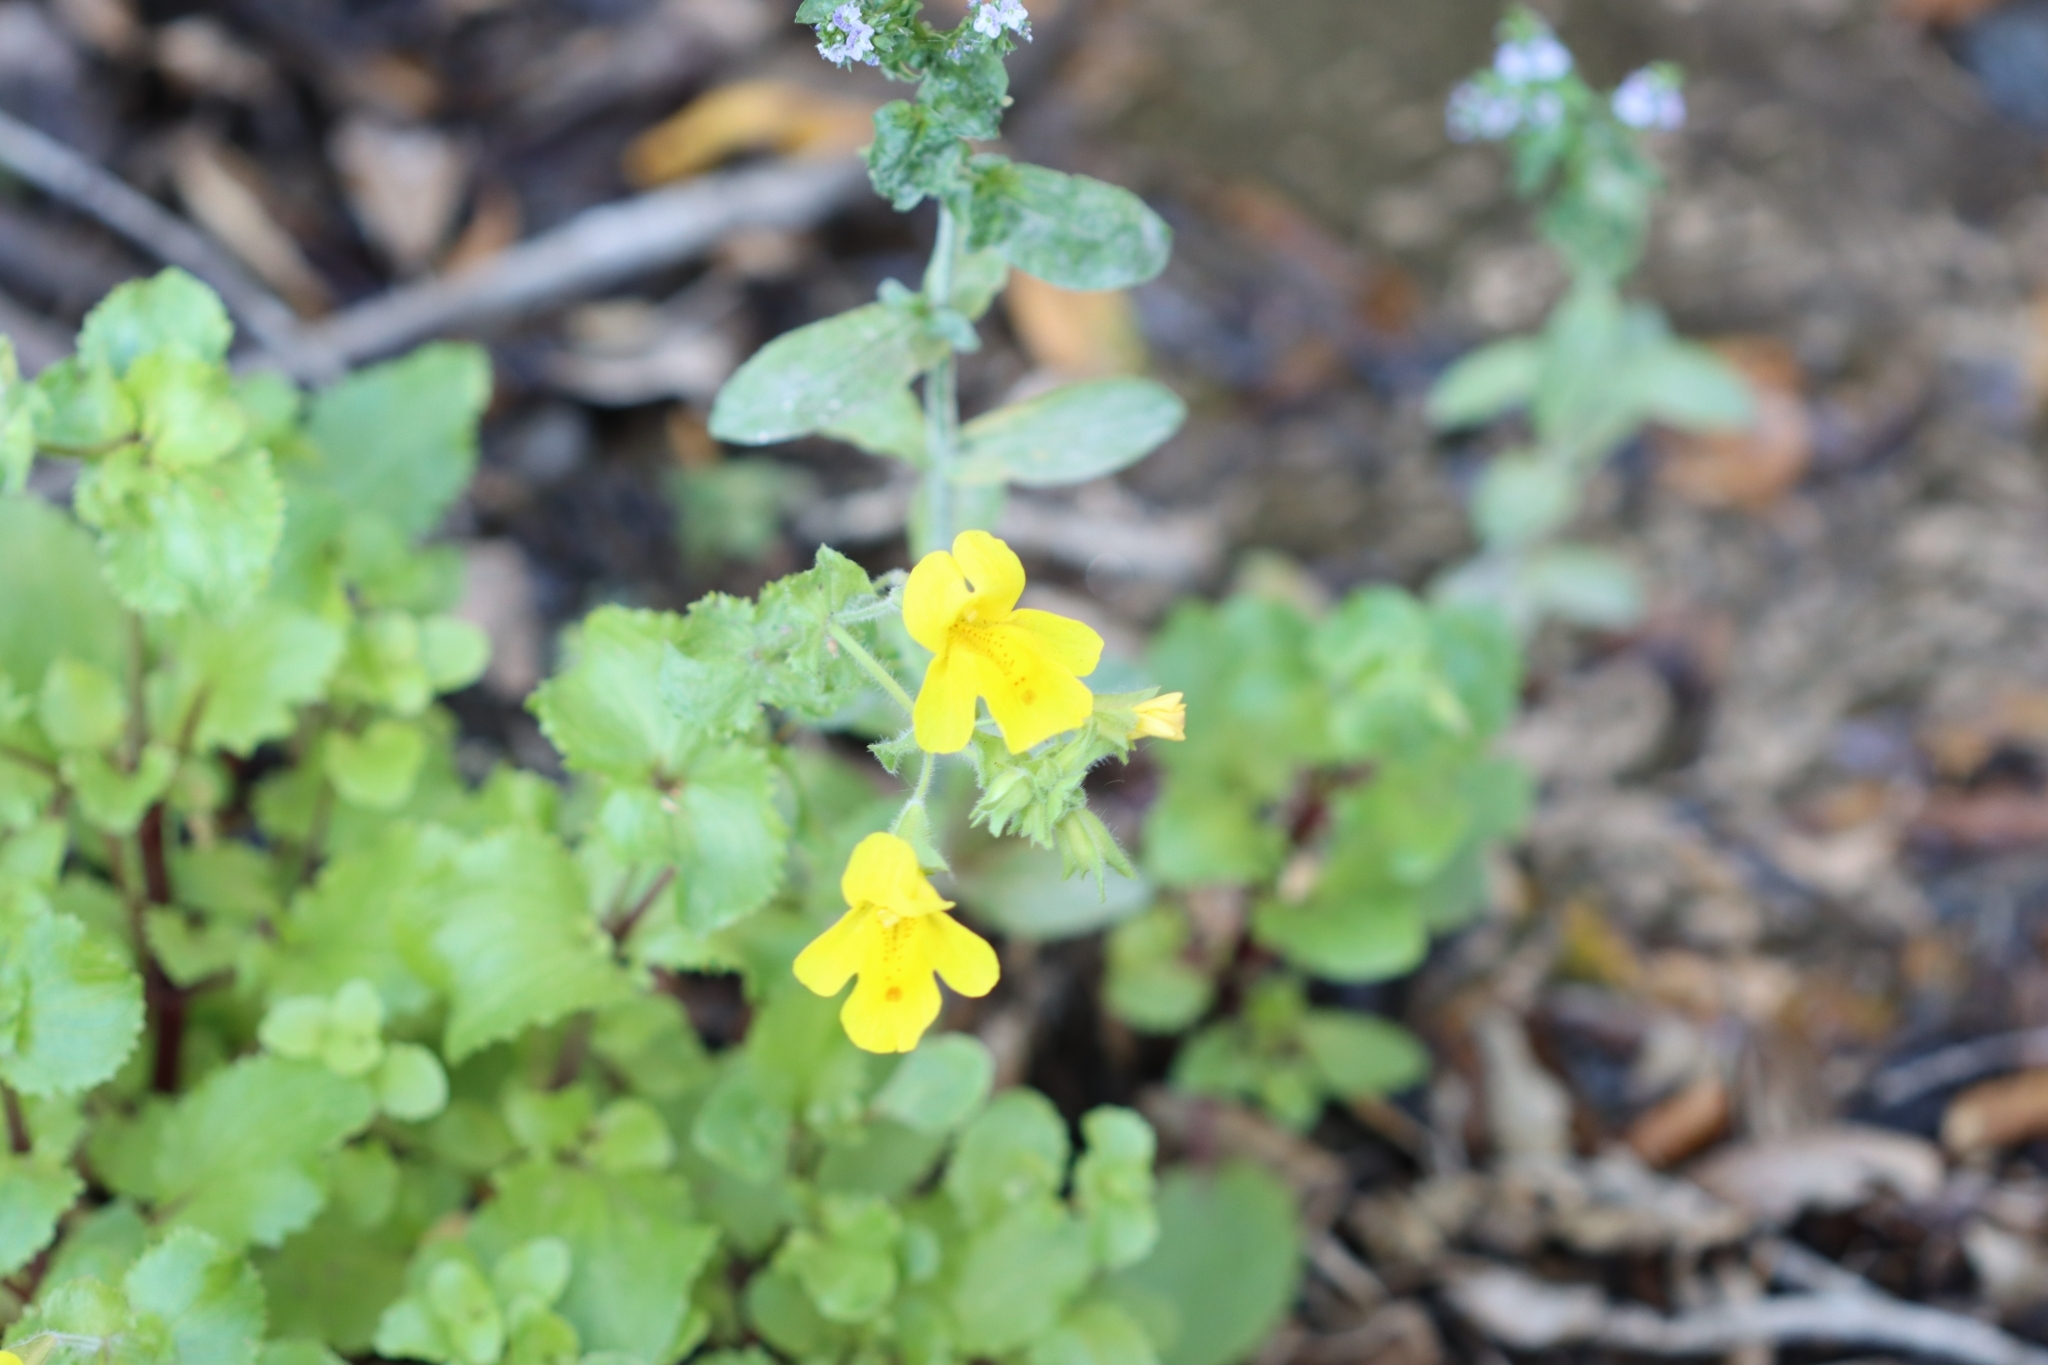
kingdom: Plantae
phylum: Tracheophyta
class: Magnoliopsida
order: Lamiales
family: Phrymaceae
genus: Erythranthe
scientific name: Erythranthe guttata
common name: Monkeyflower
